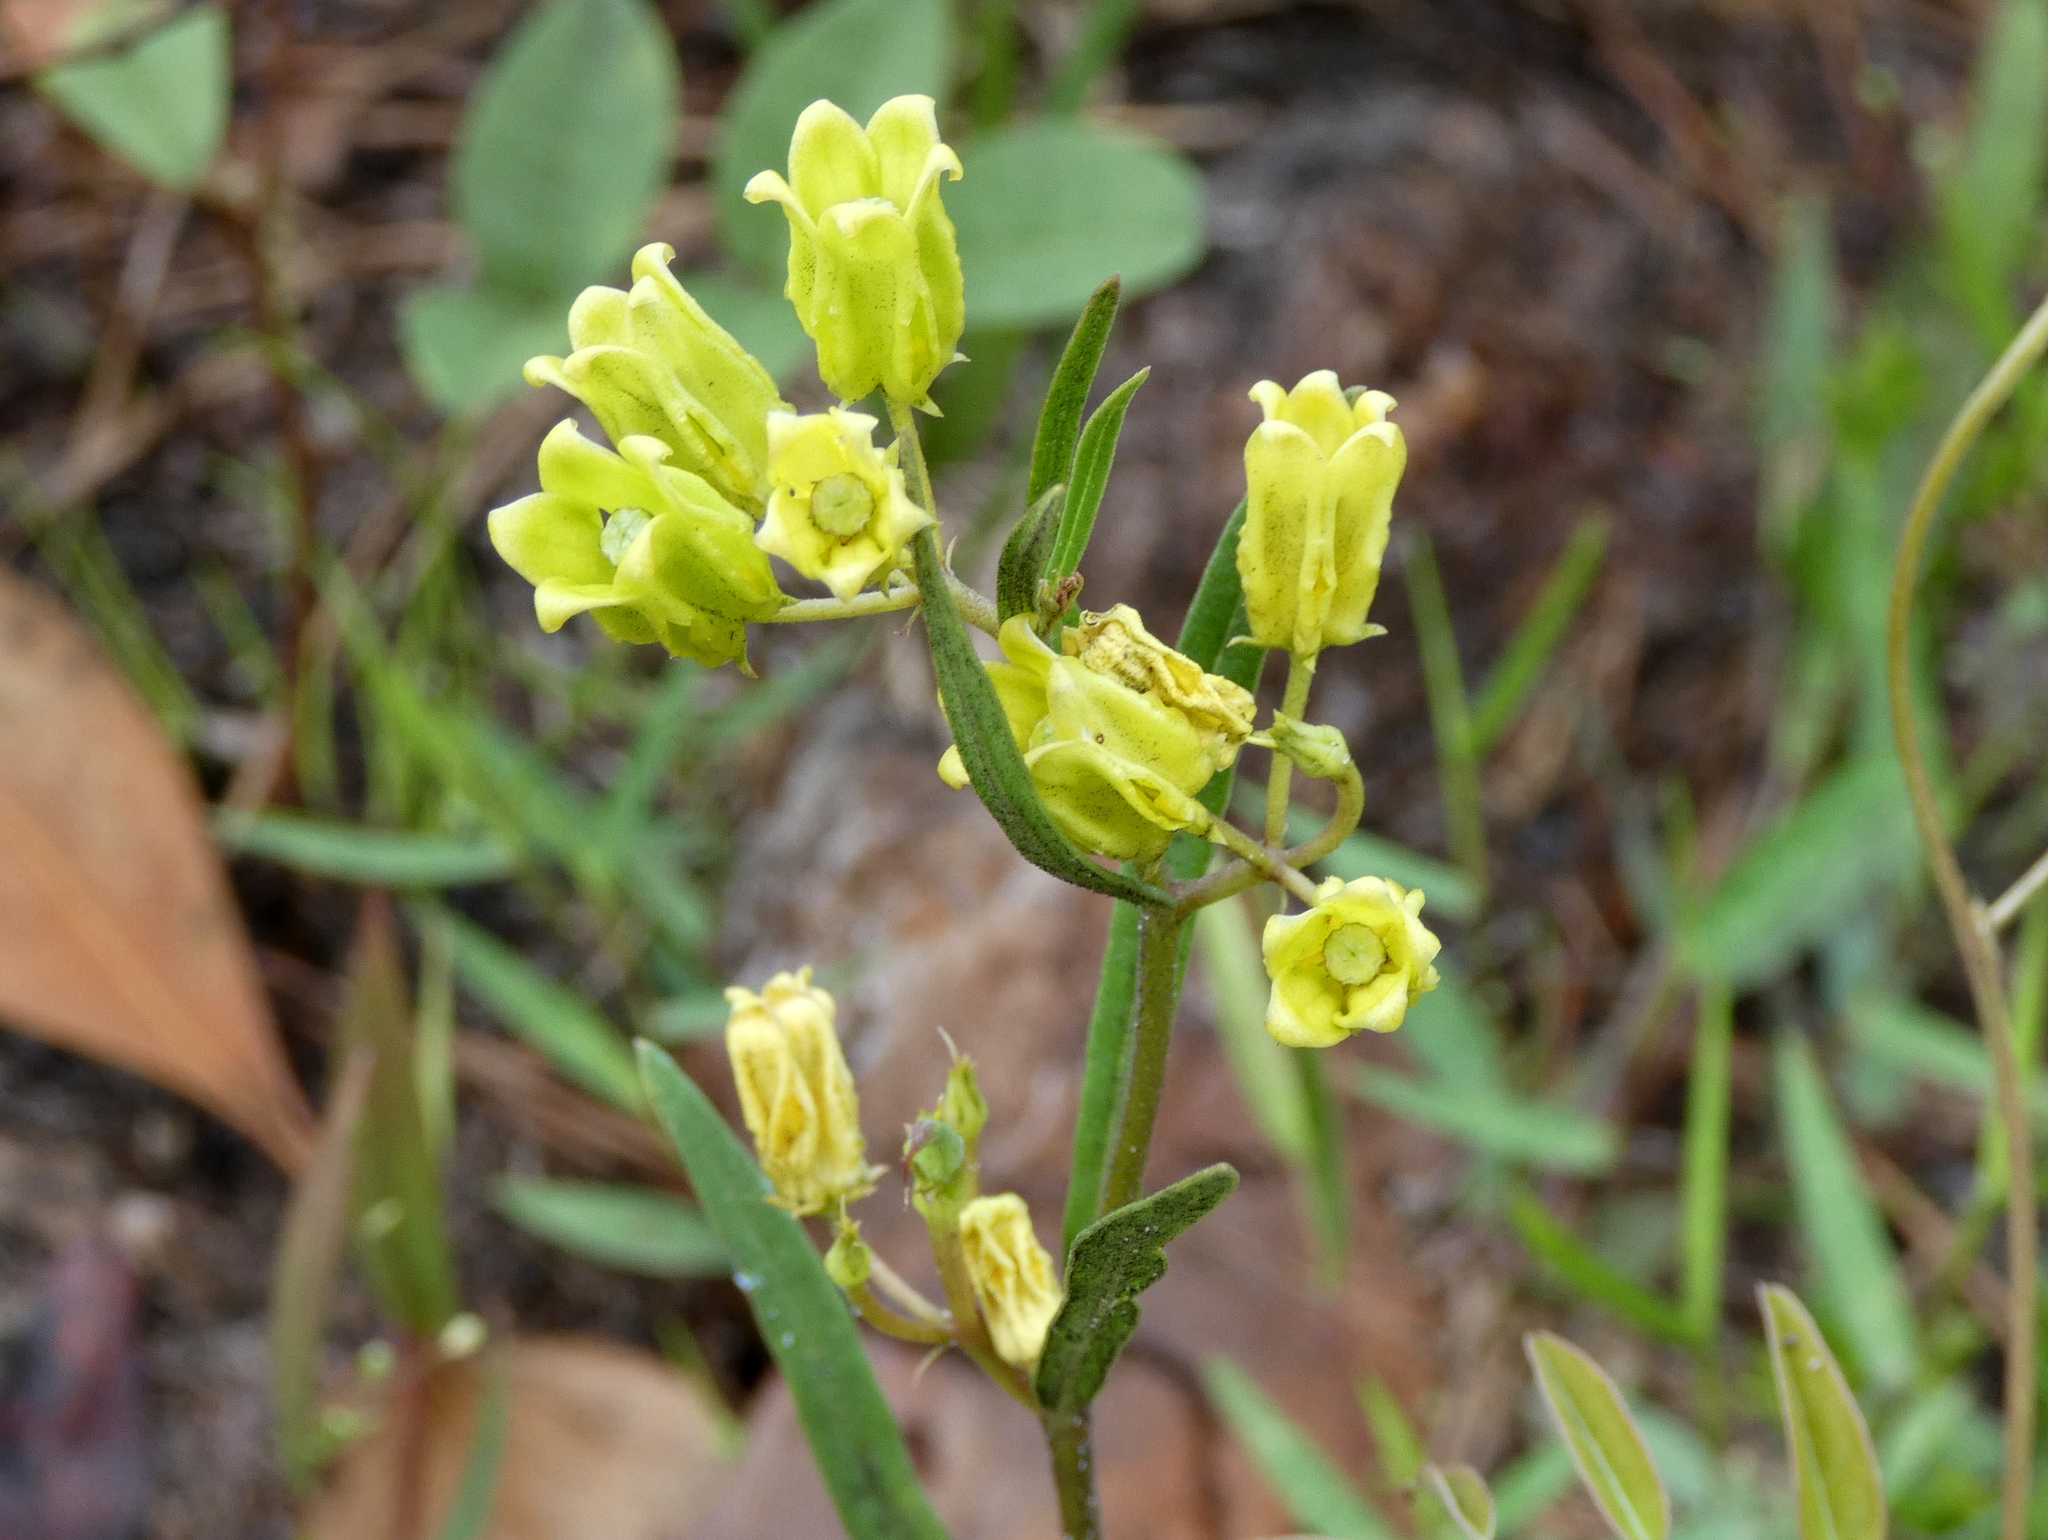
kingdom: Plantae
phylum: Tracheophyta
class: Magnoliopsida
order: Gentianales
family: Apocynaceae
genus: Asclepias
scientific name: Asclepias pedicellata
